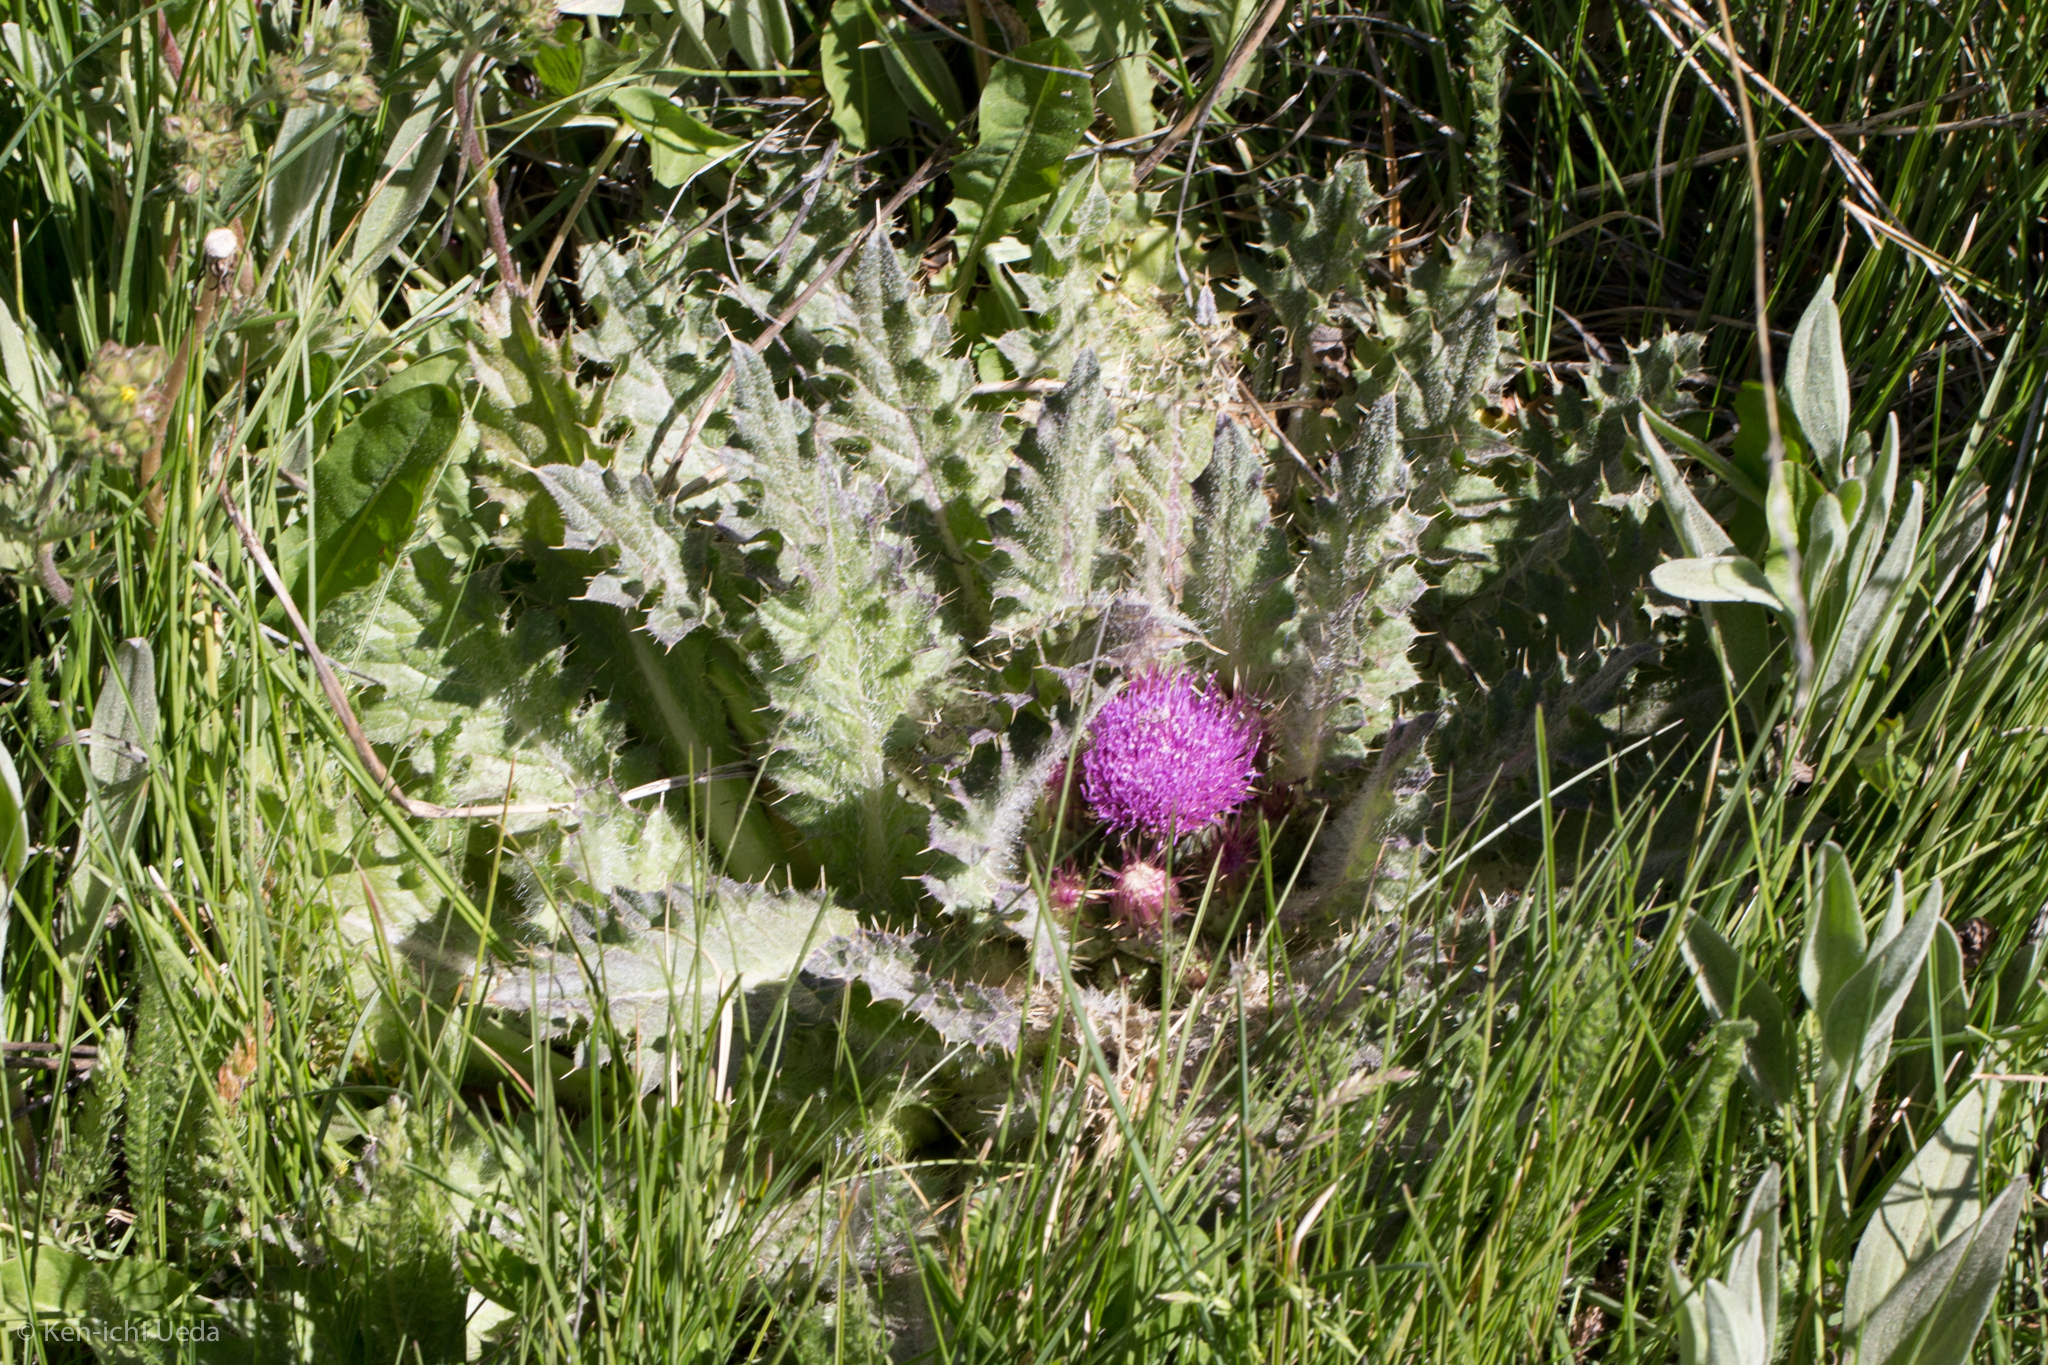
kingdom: Plantae
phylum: Tracheophyta
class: Magnoliopsida
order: Asterales
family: Asteraceae
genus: Cirsium
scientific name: Cirsium scariosum
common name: Meadow thistle
